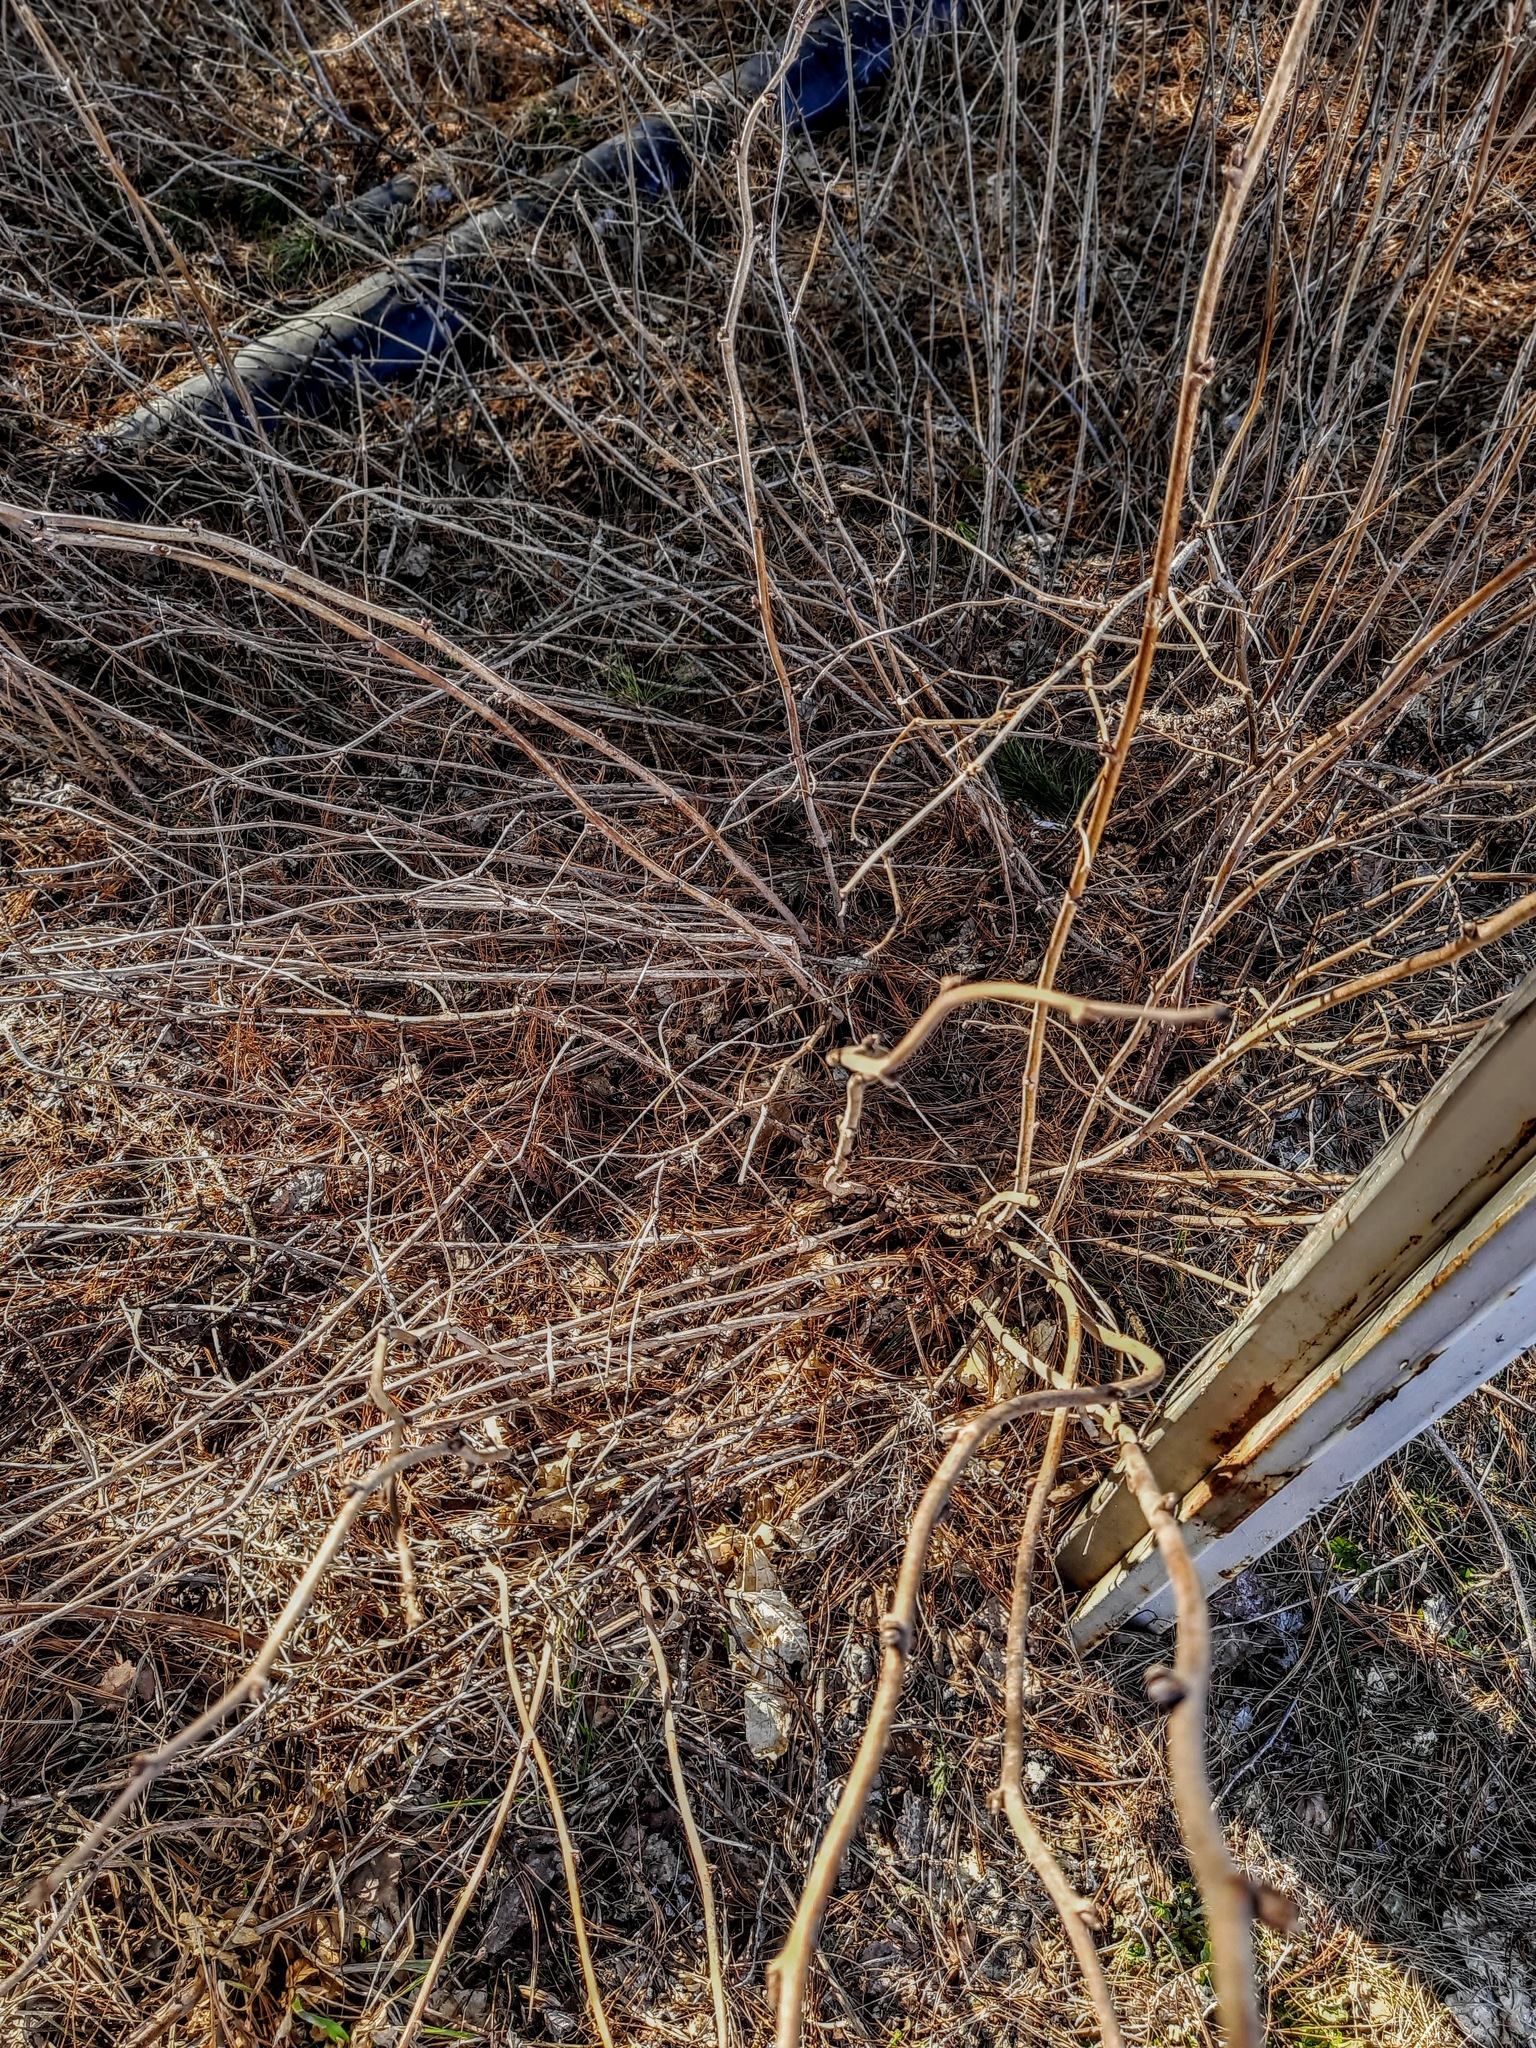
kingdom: Plantae
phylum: Tracheophyta
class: Magnoliopsida
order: Rosales
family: Rosaceae
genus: Rubus
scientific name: Rubus sachalinensis
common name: Red raspberry
